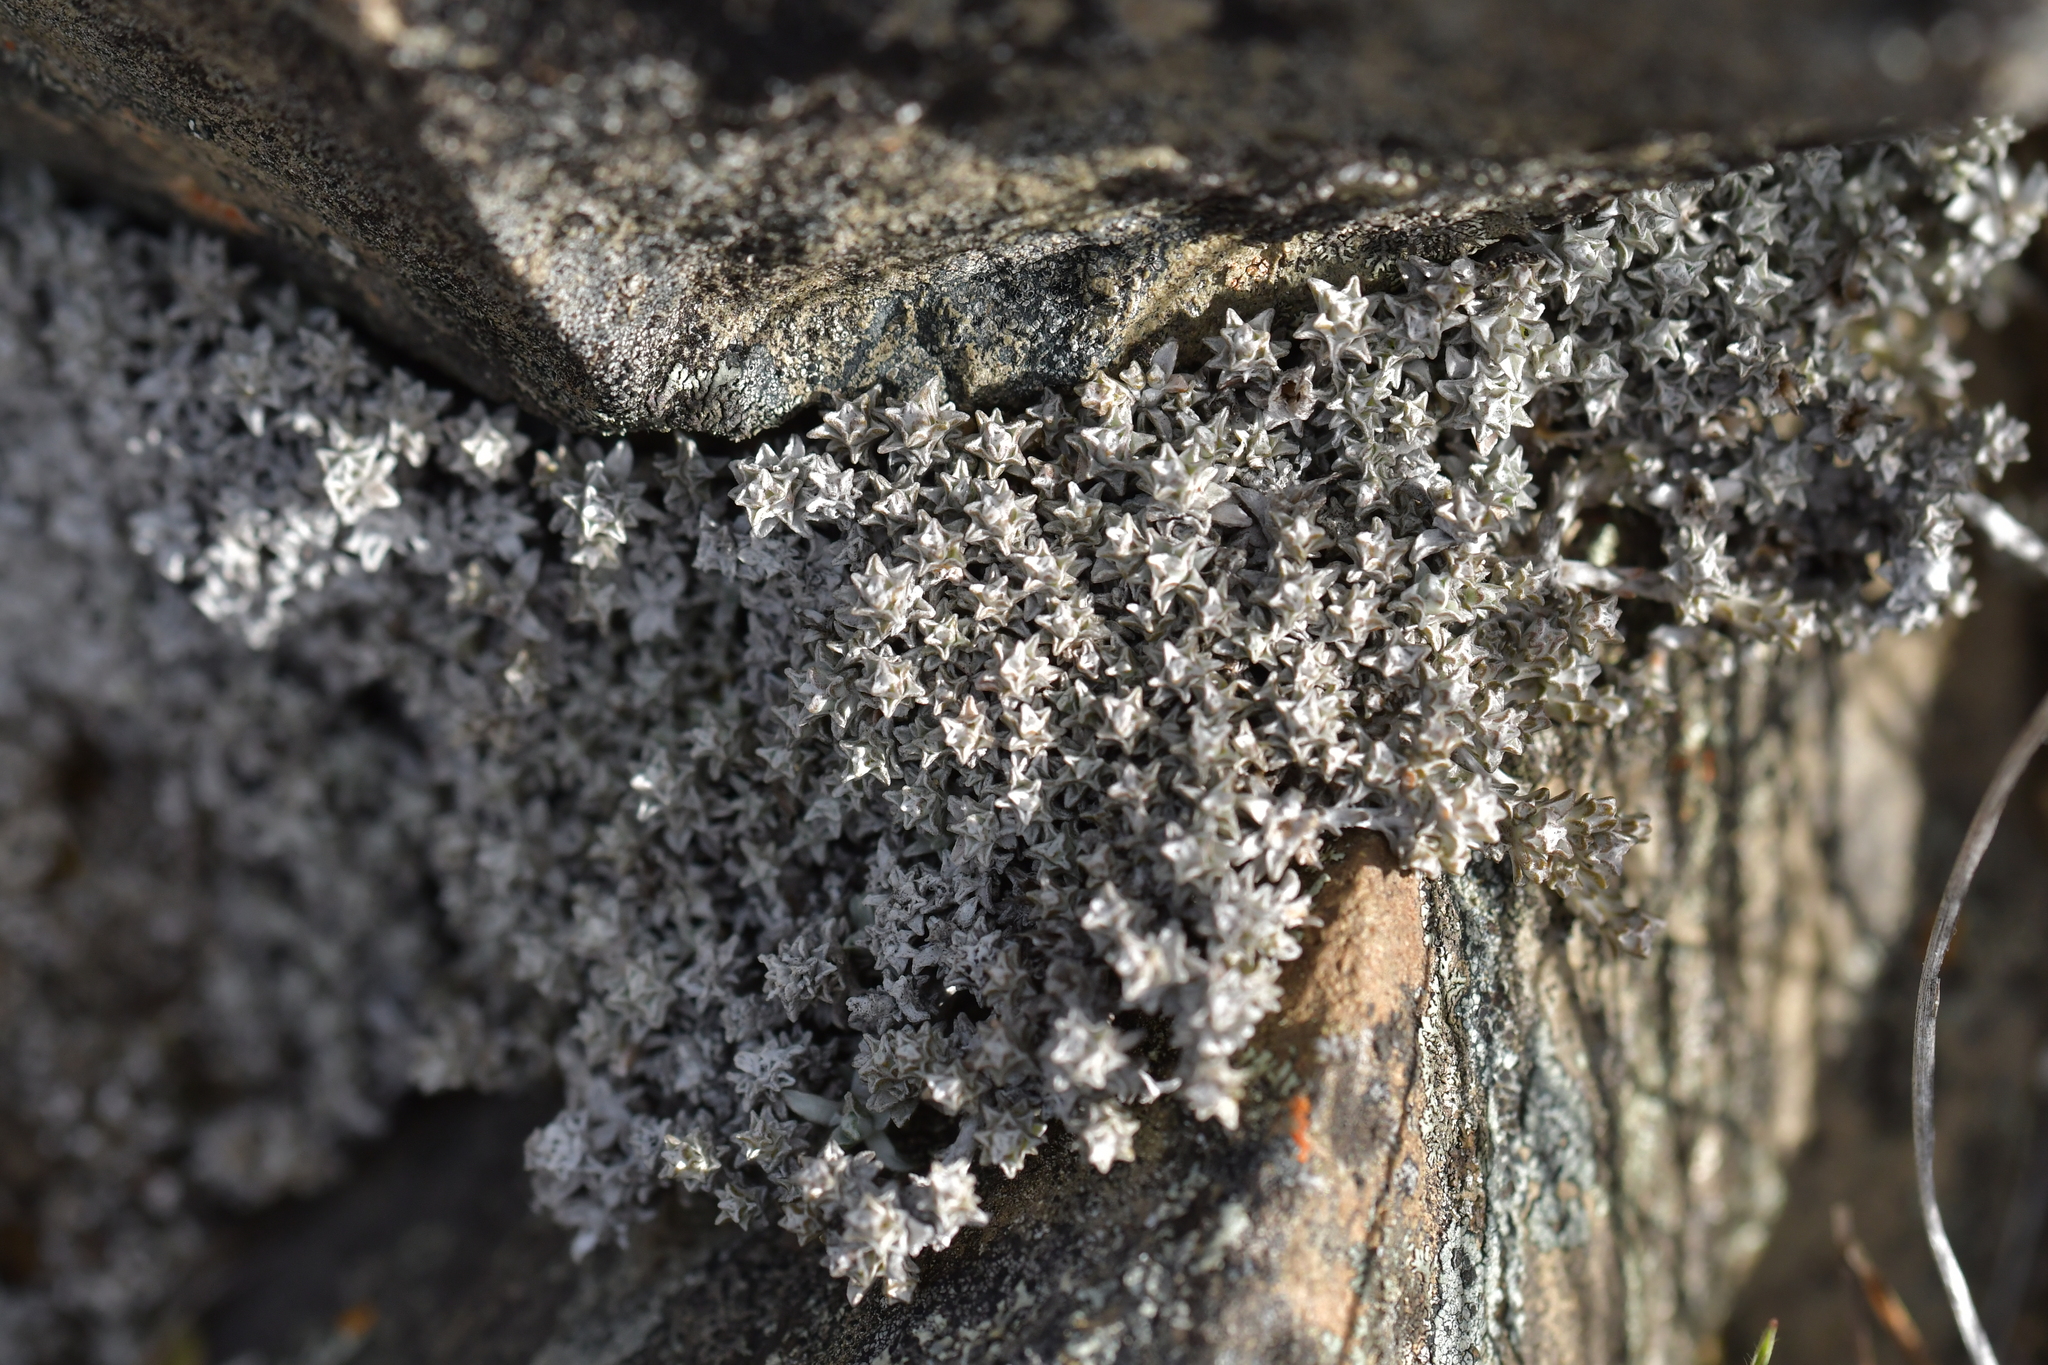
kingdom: Plantae
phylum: Tracheophyta
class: Magnoliopsida
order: Asterales
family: Asteraceae
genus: Raoulia
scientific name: Raoulia beauverdii
